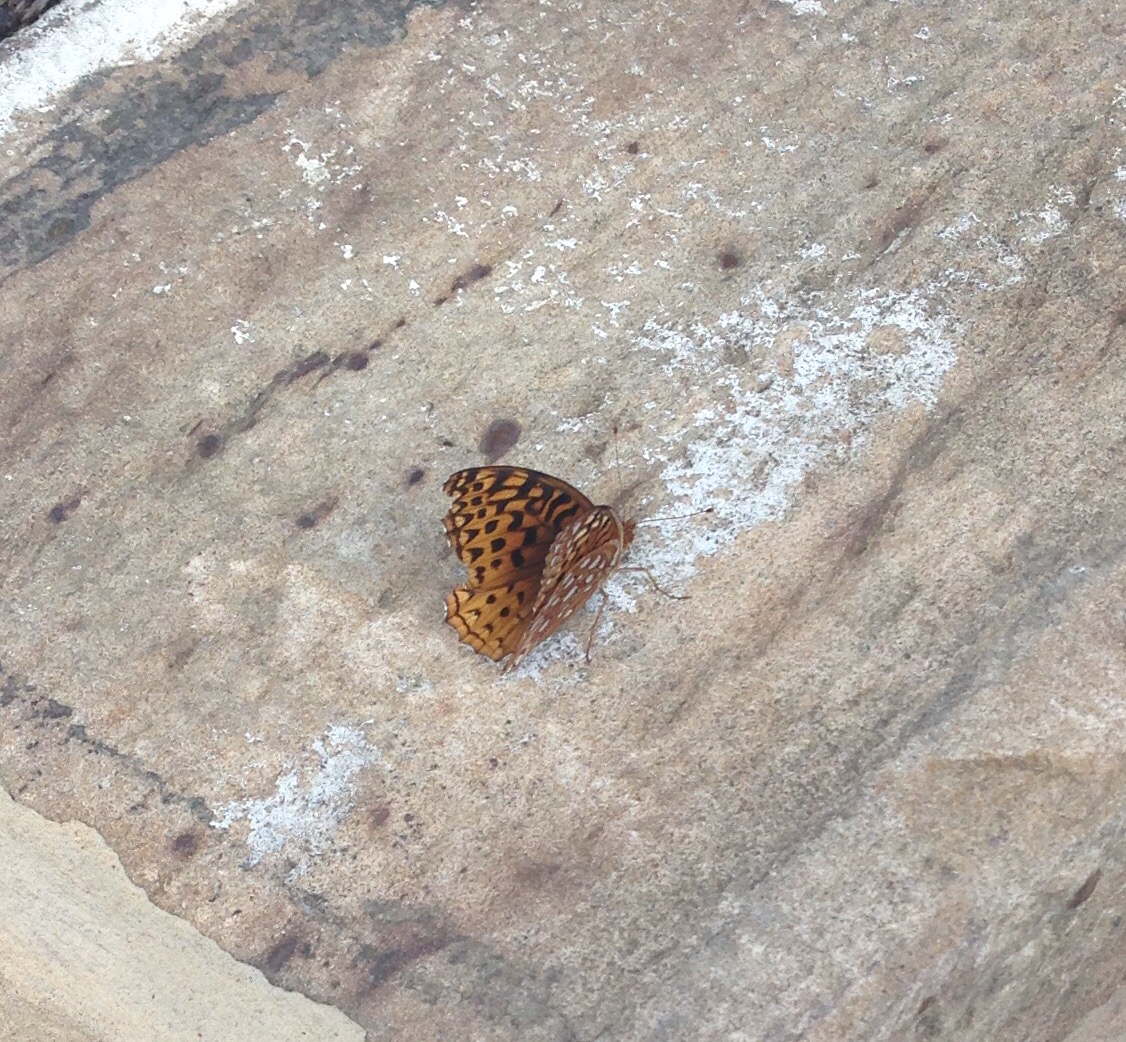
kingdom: Animalia
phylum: Arthropoda
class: Insecta
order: Lepidoptera
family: Nymphalidae
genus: Speyeria
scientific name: Speyeria cybele
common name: Great spangled fritillary
